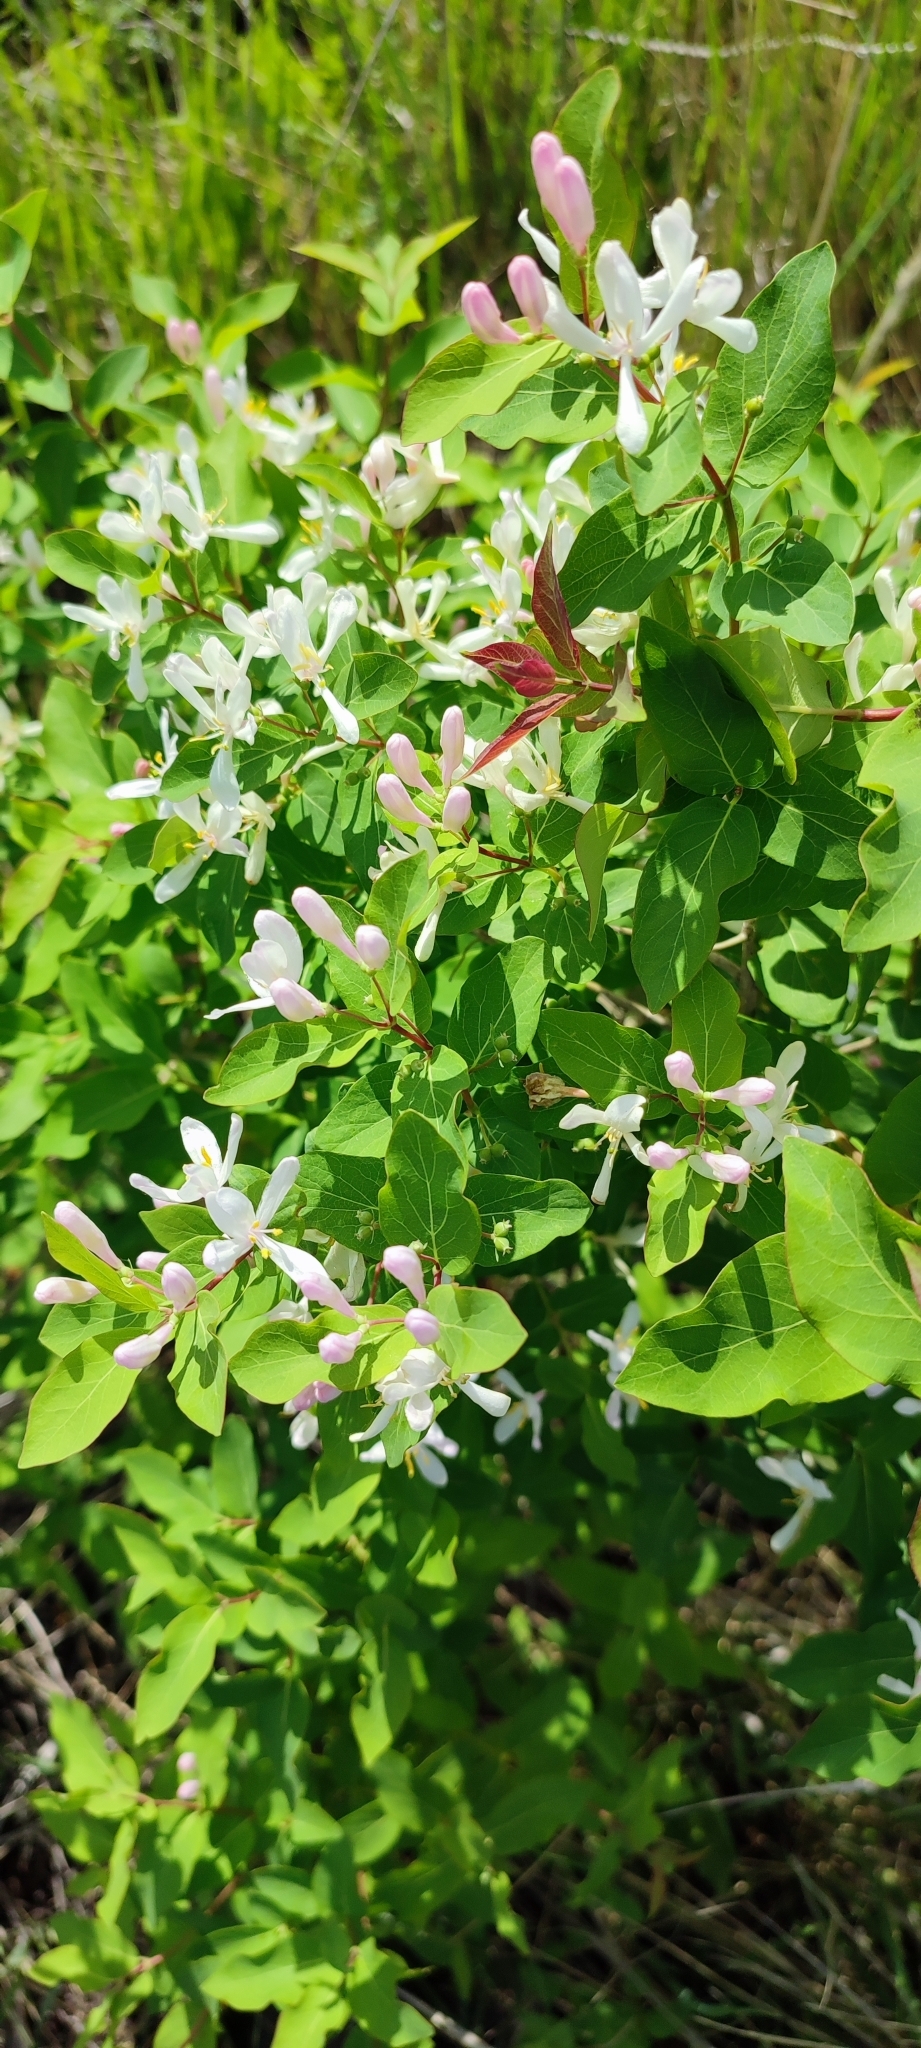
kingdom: Plantae
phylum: Tracheophyta
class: Magnoliopsida
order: Dipsacales
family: Caprifoliaceae
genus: Lonicera
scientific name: Lonicera tatarica
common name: Tatarian honeysuckle
